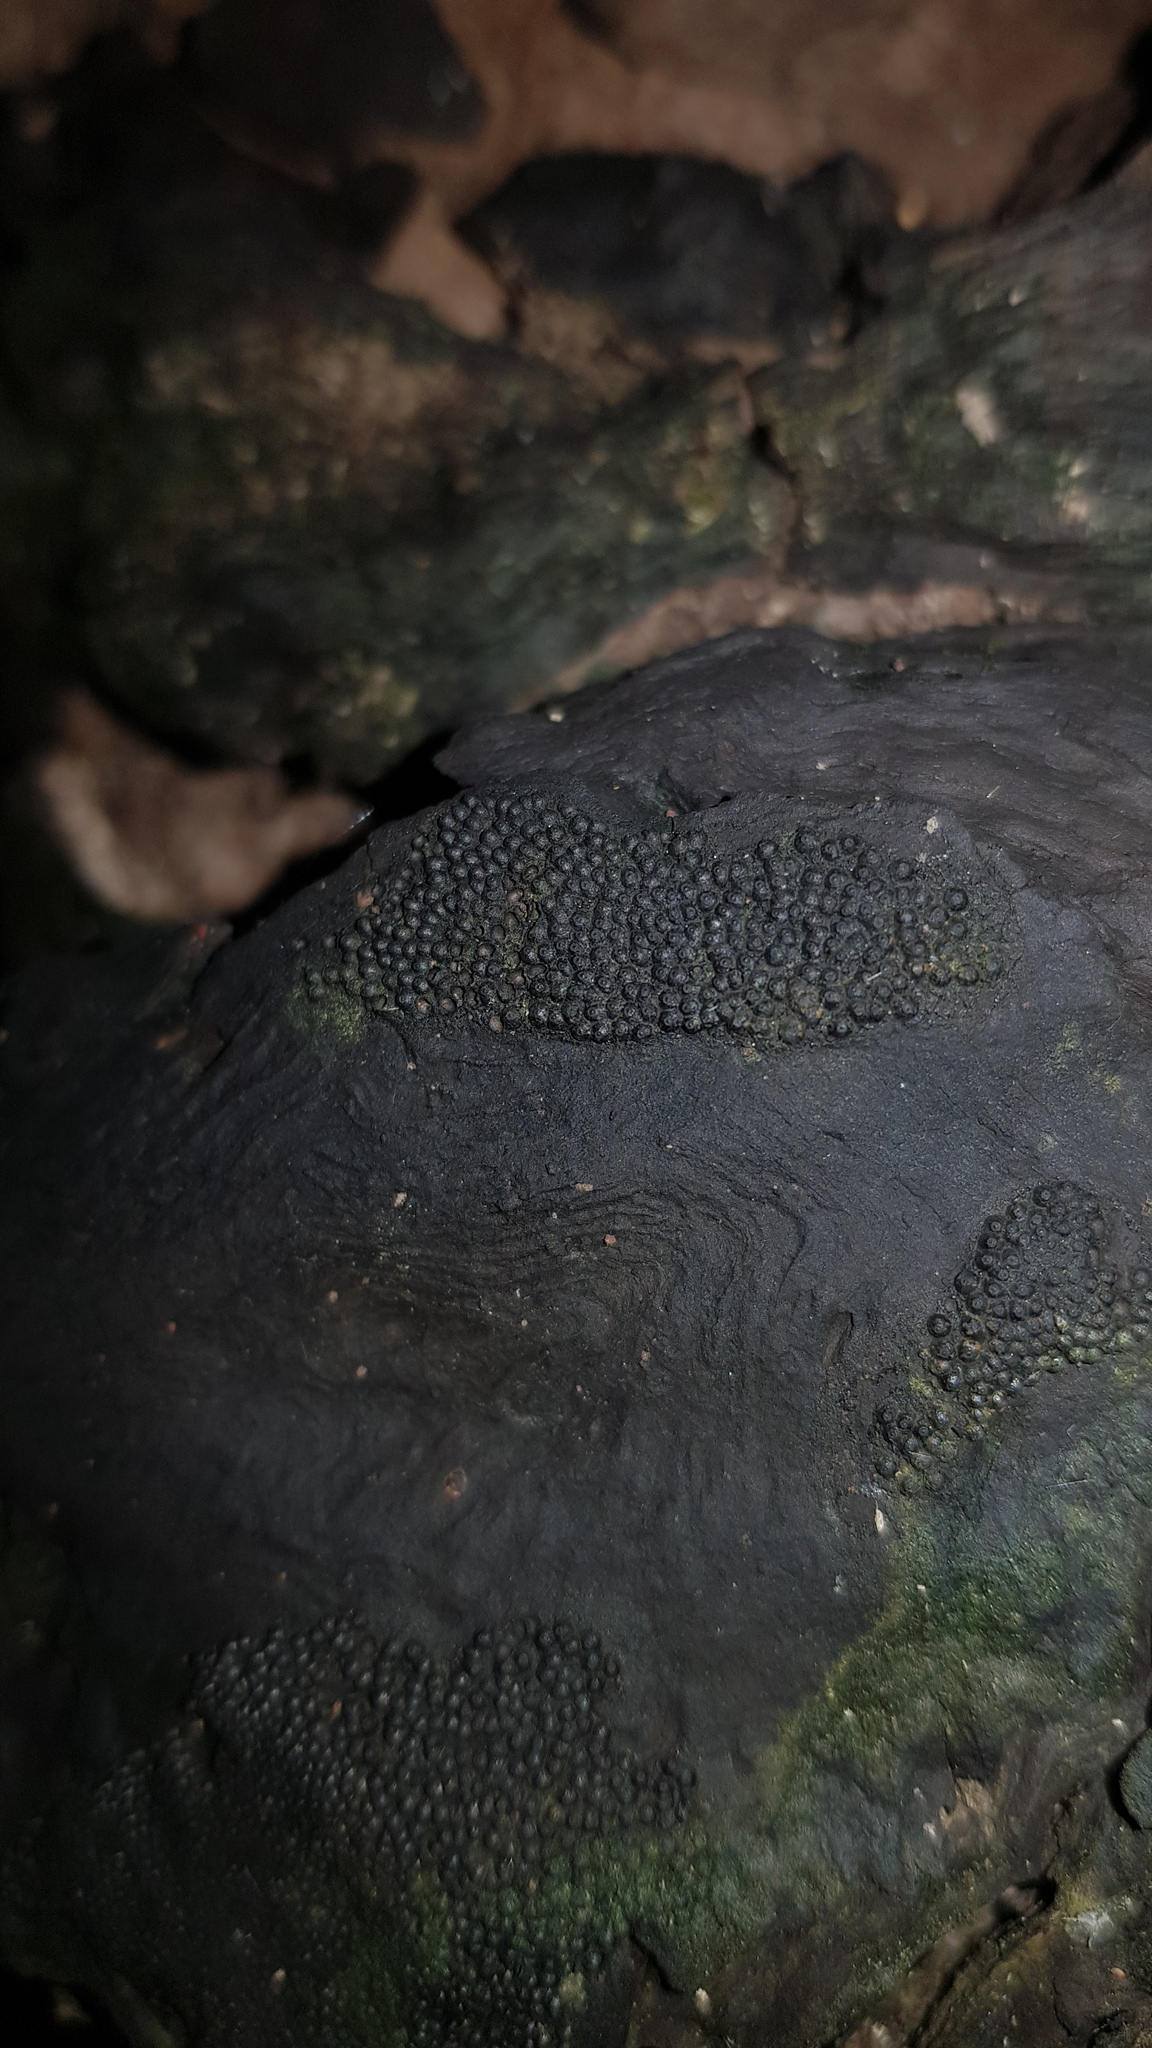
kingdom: Fungi
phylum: Ascomycota
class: Sordariomycetes
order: Xylariales
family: Hypoxylaceae
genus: Annulohypoxylon
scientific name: Annulohypoxylon bovei
